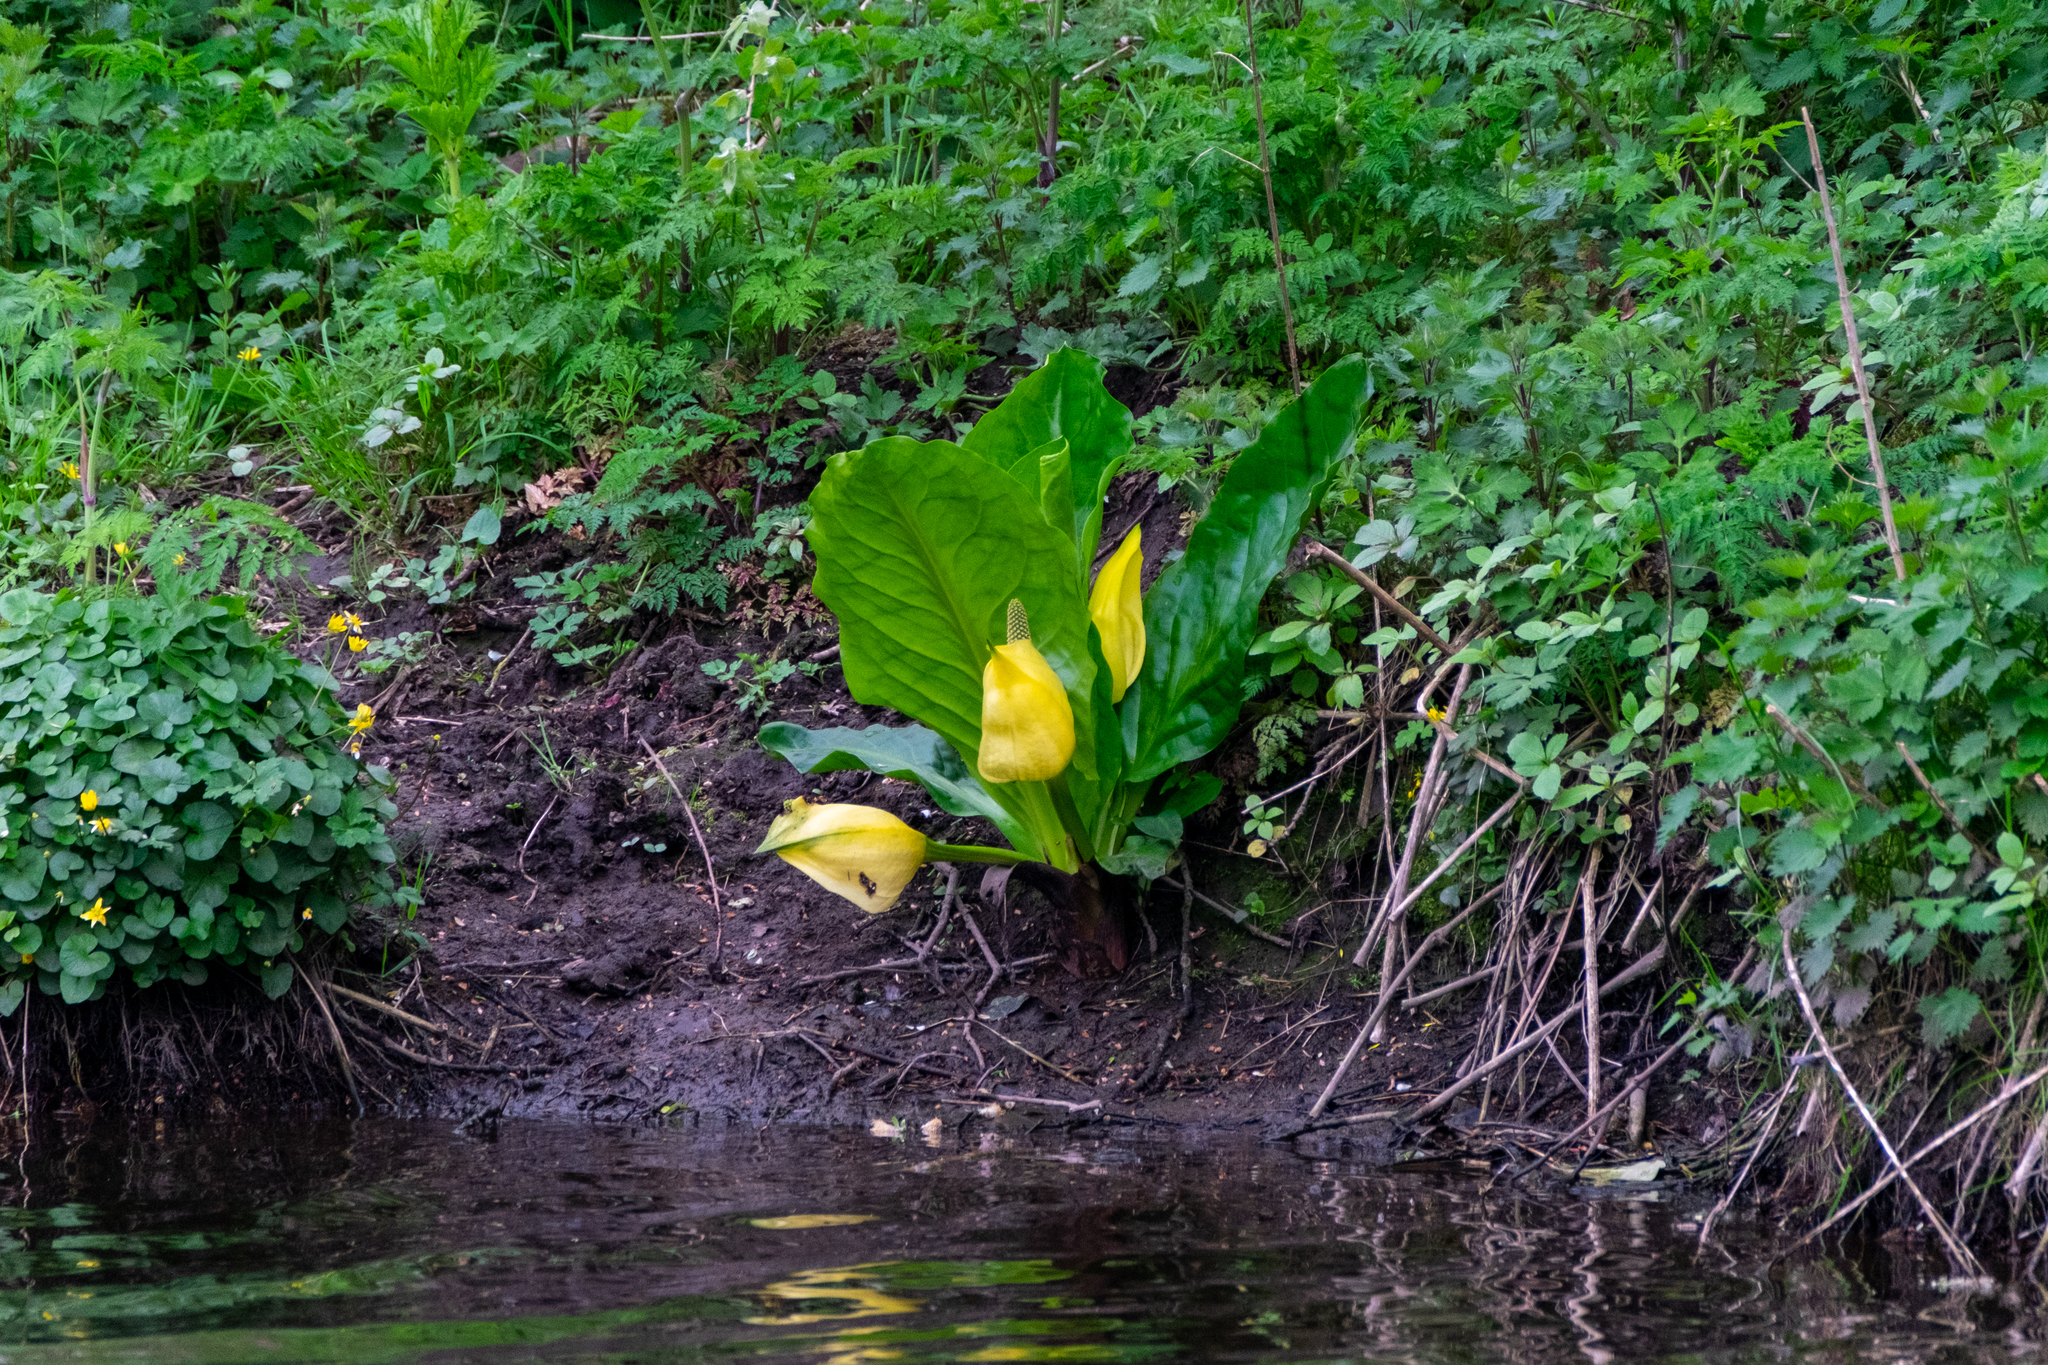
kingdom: Plantae
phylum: Tracheophyta
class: Liliopsida
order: Alismatales
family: Araceae
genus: Lysichiton
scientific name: Lysichiton americanus
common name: American skunk cabbage
